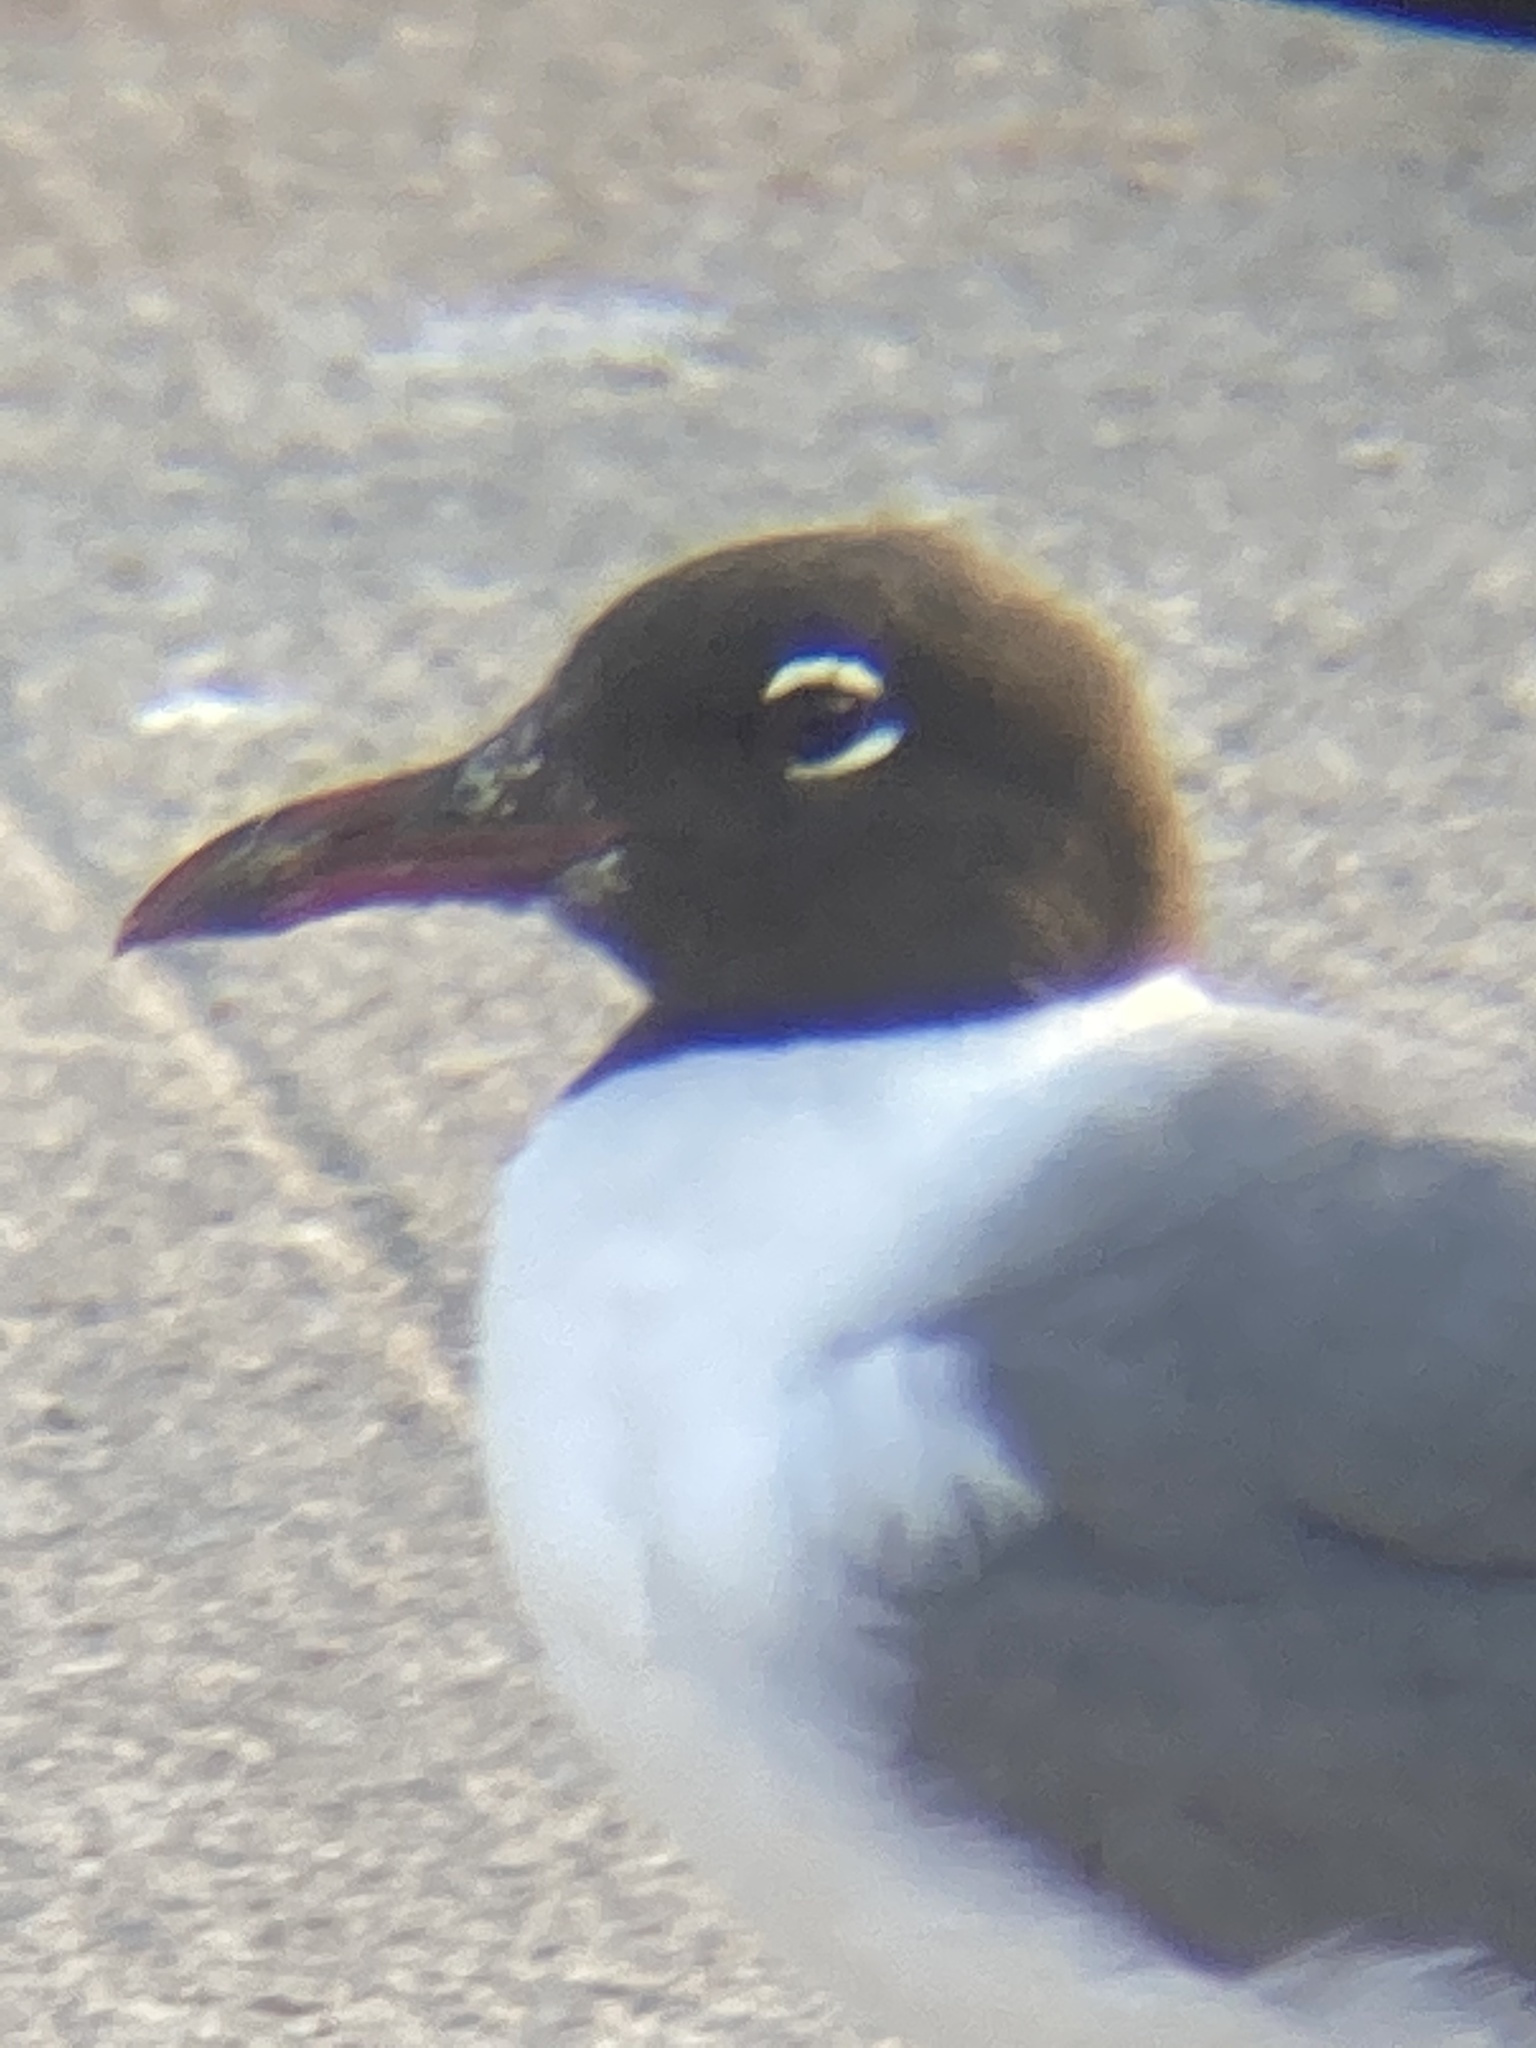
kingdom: Animalia
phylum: Chordata
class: Aves
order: Charadriiformes
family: Laridae
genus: Leucophaeus
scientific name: Leucophaeus atricilla
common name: Laughing gull
